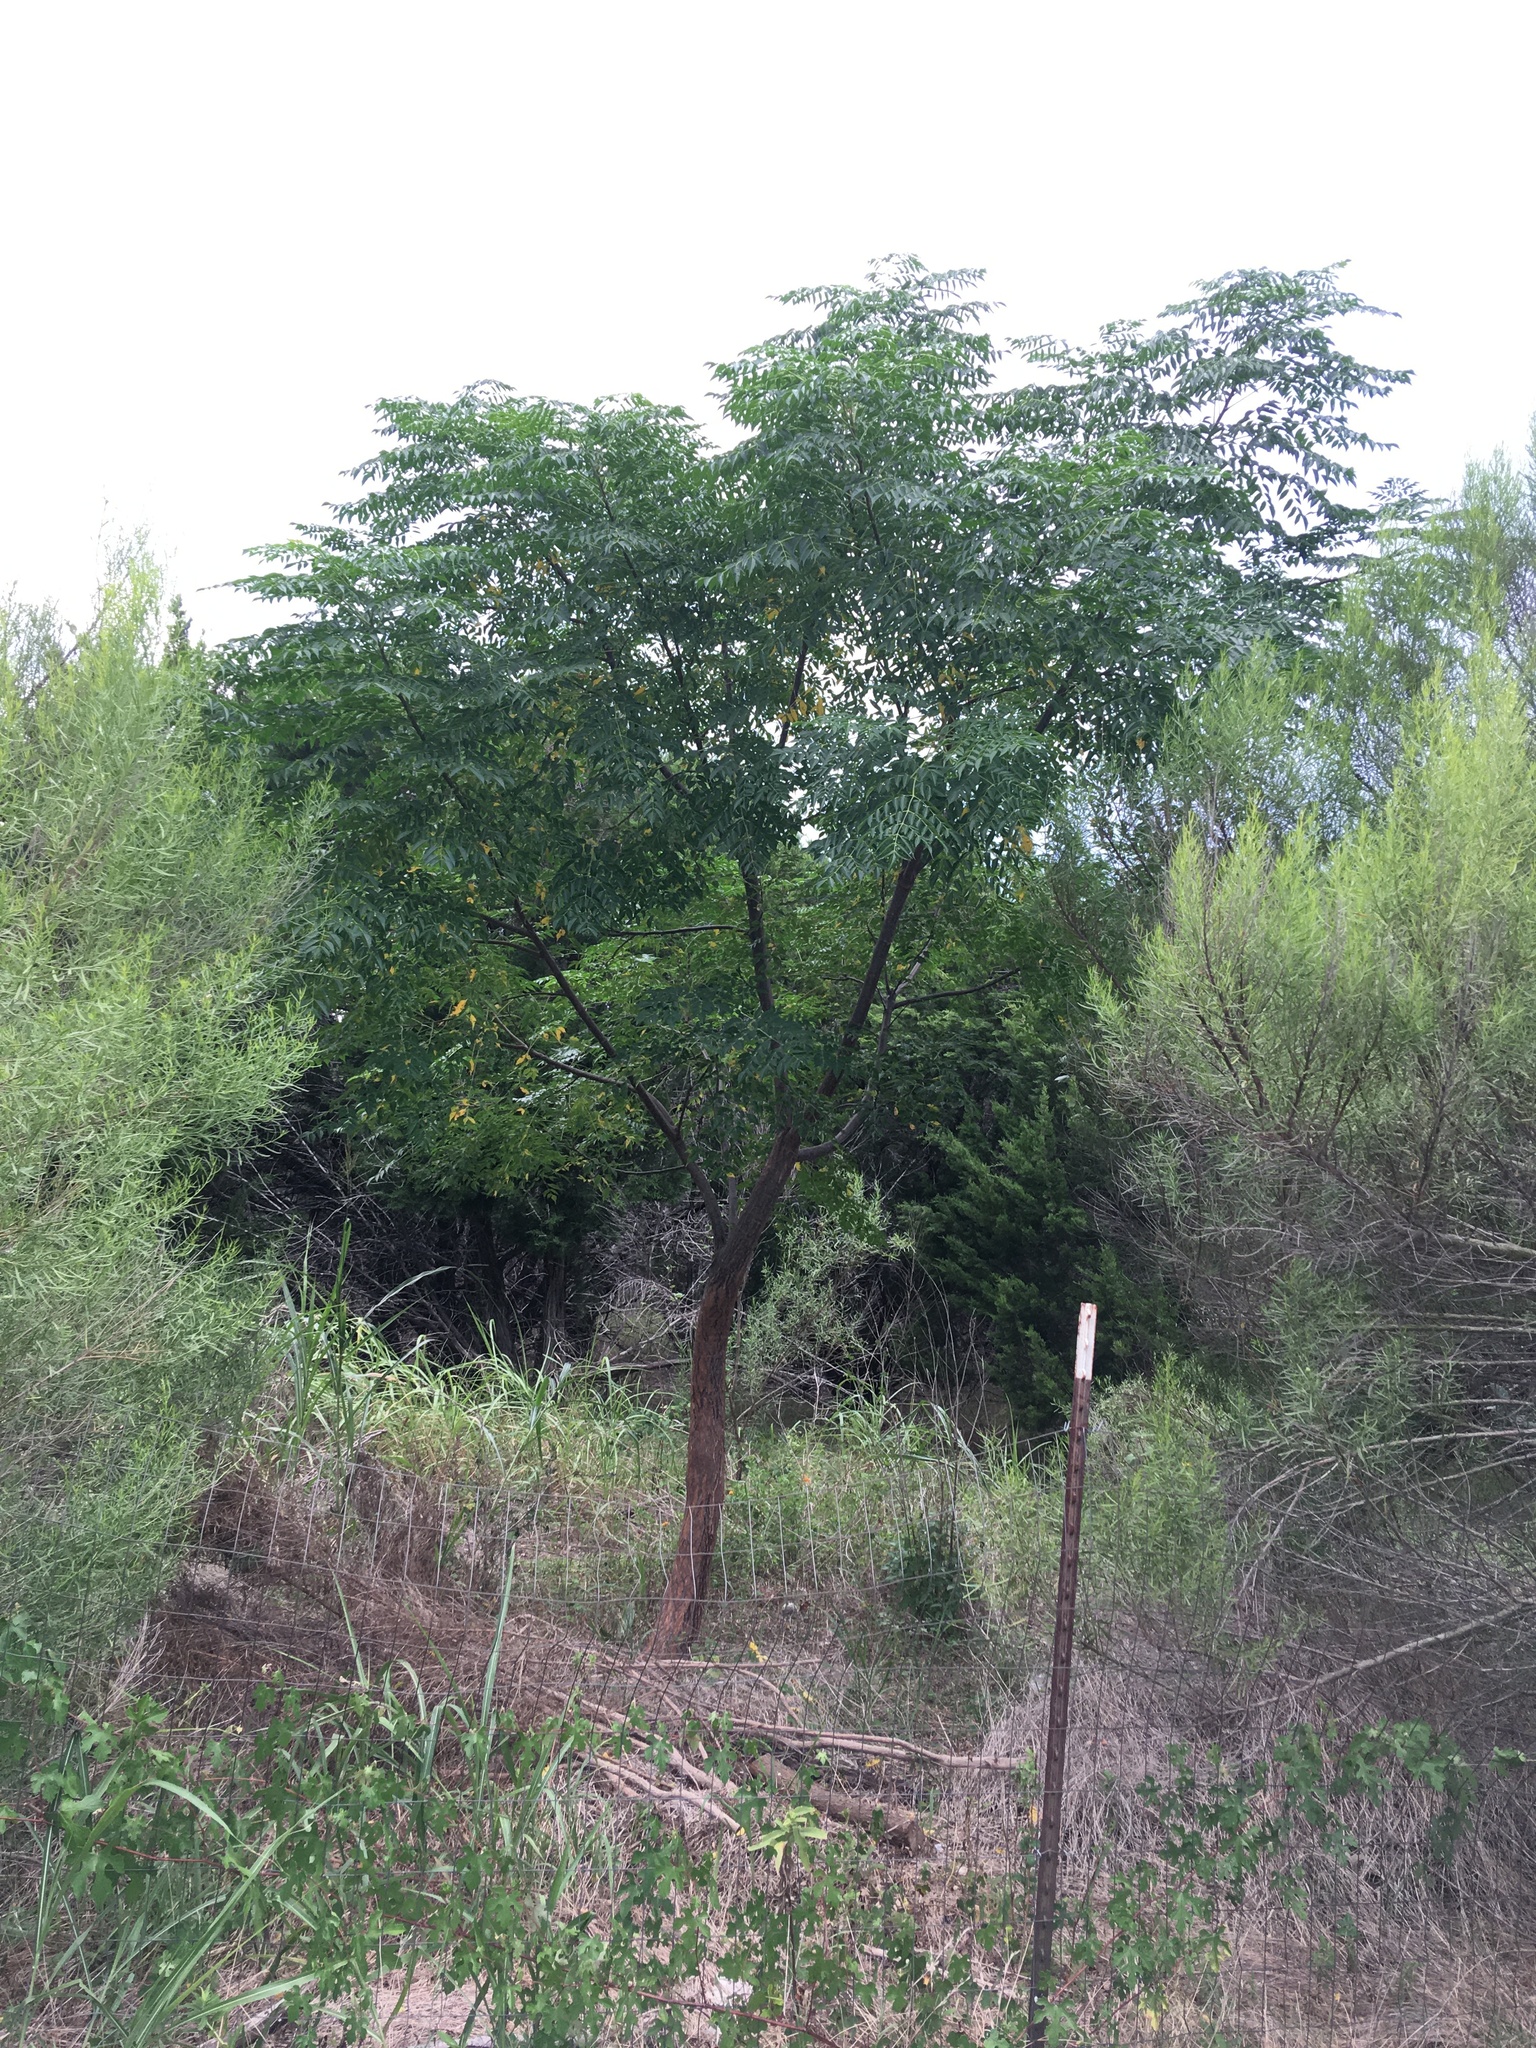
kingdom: Plantae
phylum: Tracheophyta
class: Magnoliopsida
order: Sapindales
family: Meliaceae
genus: Melia
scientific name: Melia azedarach
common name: Chinaberrytree
